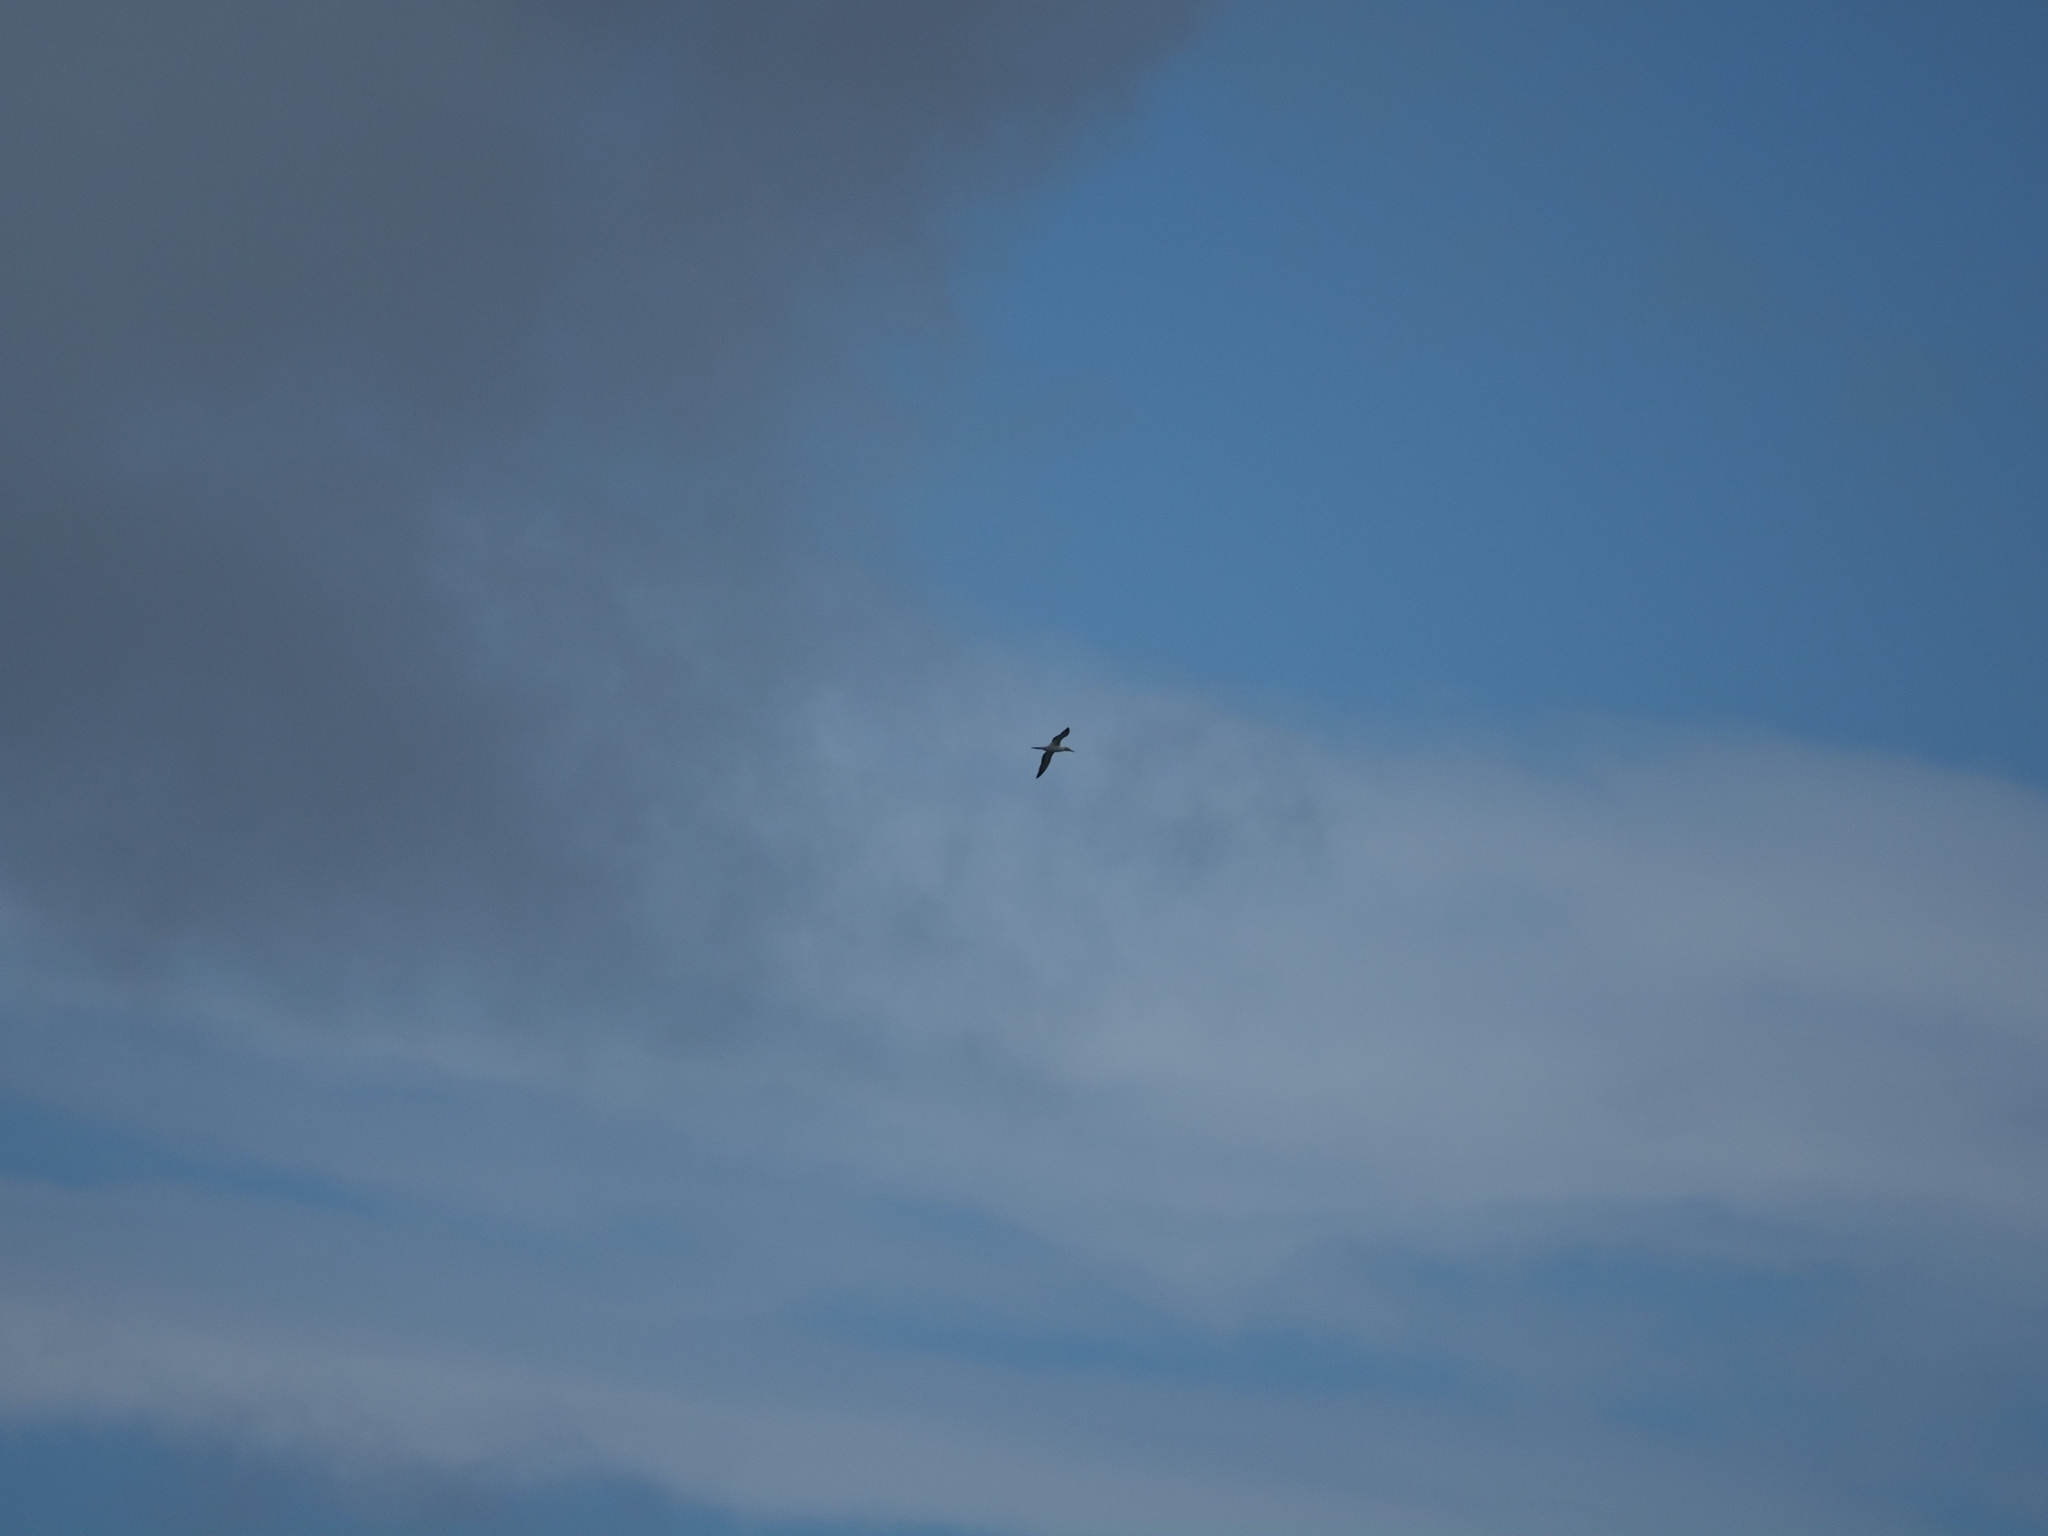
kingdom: Animalia
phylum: Chordata
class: Aves
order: Suliformes
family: Sulidae
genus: Morus
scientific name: Morus serrator
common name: Australasian gannet
